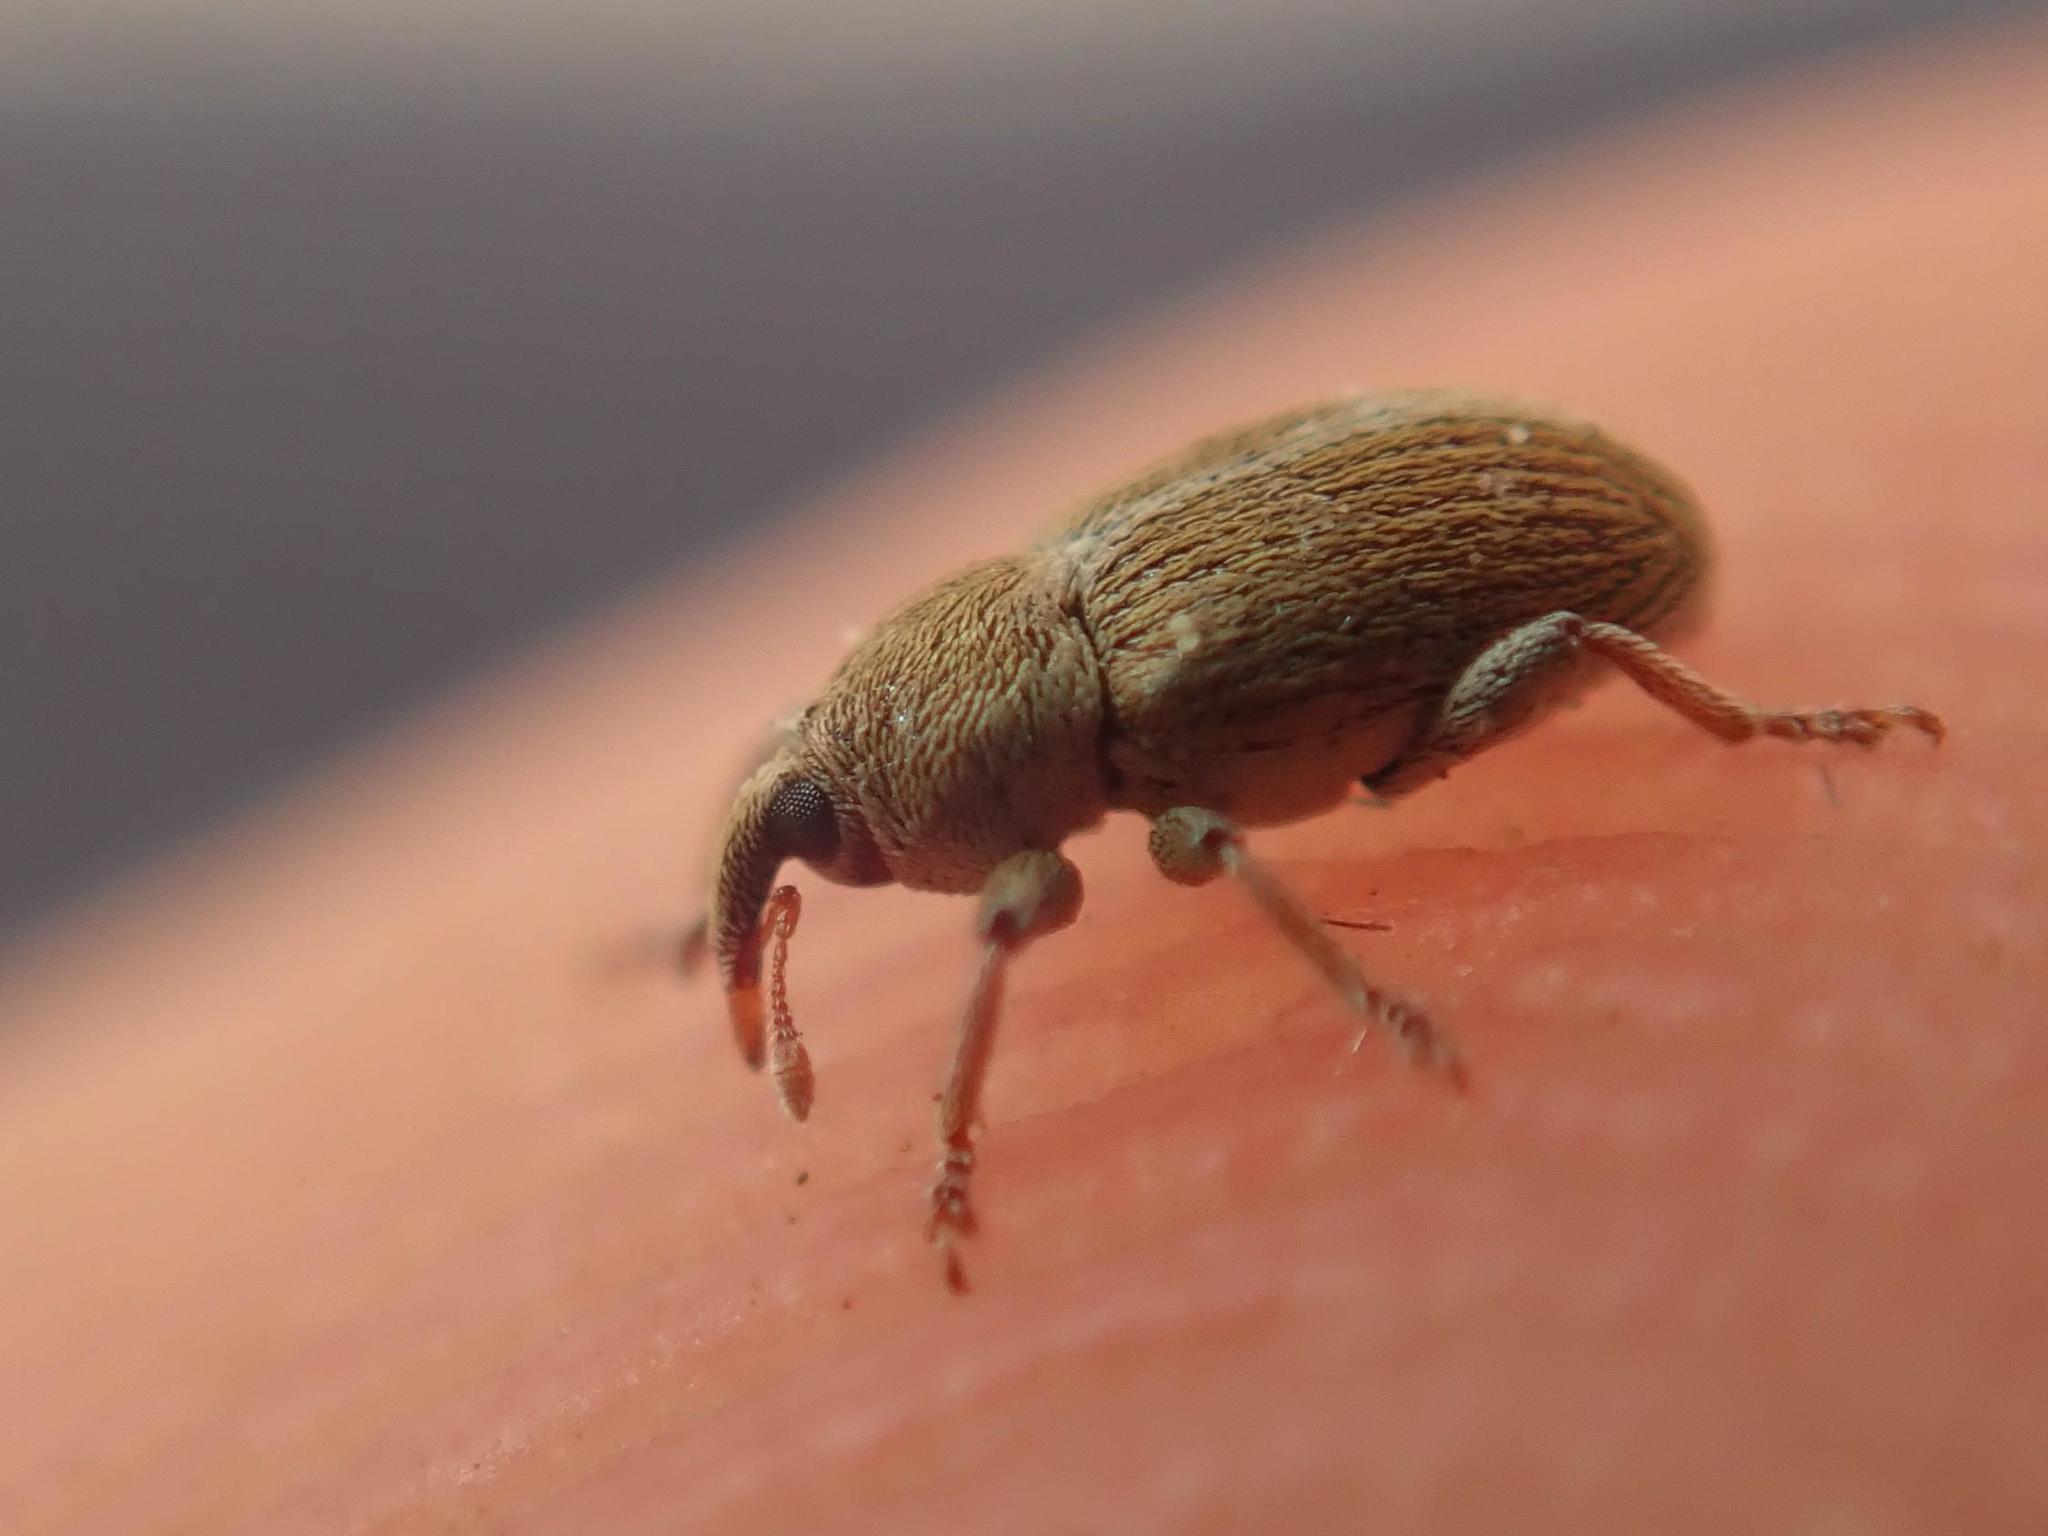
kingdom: Animalia
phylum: Arthropoda
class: Insecta
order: Coleoptera
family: Curculionidae
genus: Tychius
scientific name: Tychius meliloti
